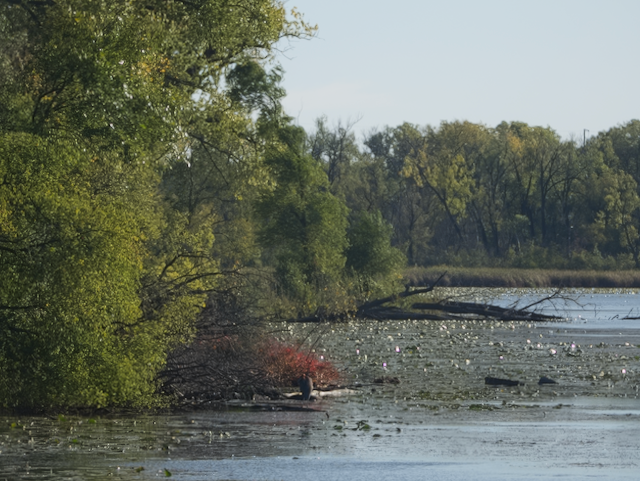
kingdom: Animalia
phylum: Chordata
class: Aves
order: Pelecaniformes
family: Ardeidae
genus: Ardea
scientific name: Ardea herodias
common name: Great blue heron
